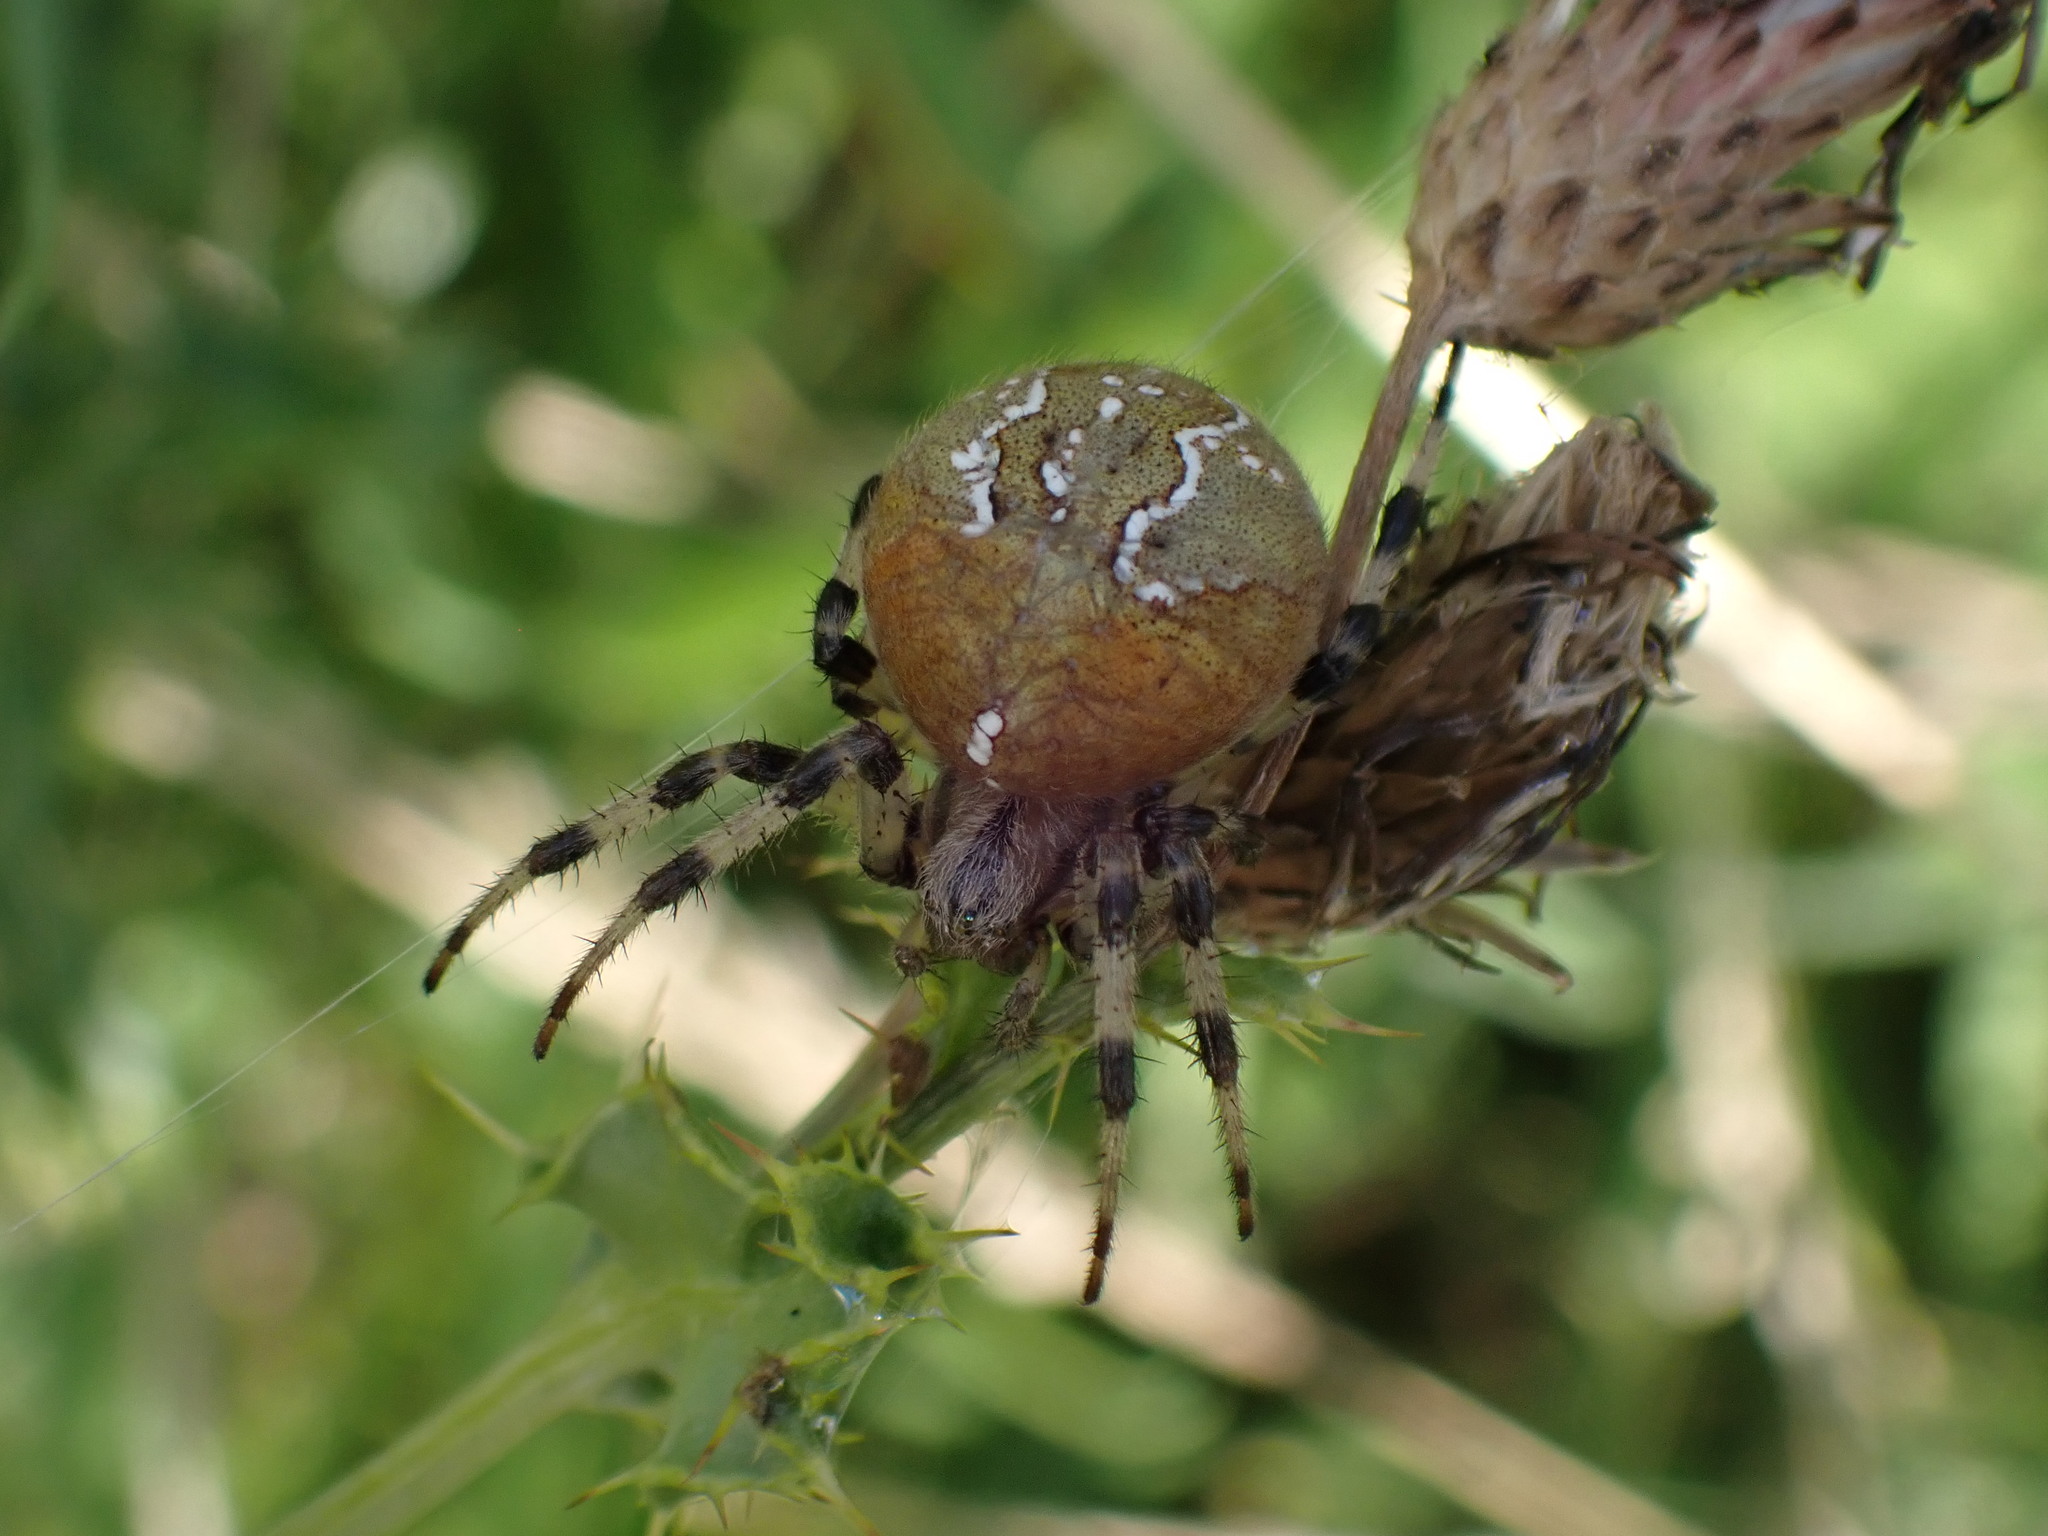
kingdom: Animalia
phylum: Arthropoda
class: Arachnida
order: Araneae
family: Araneidae
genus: Araneus
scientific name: Araneus quadratus
